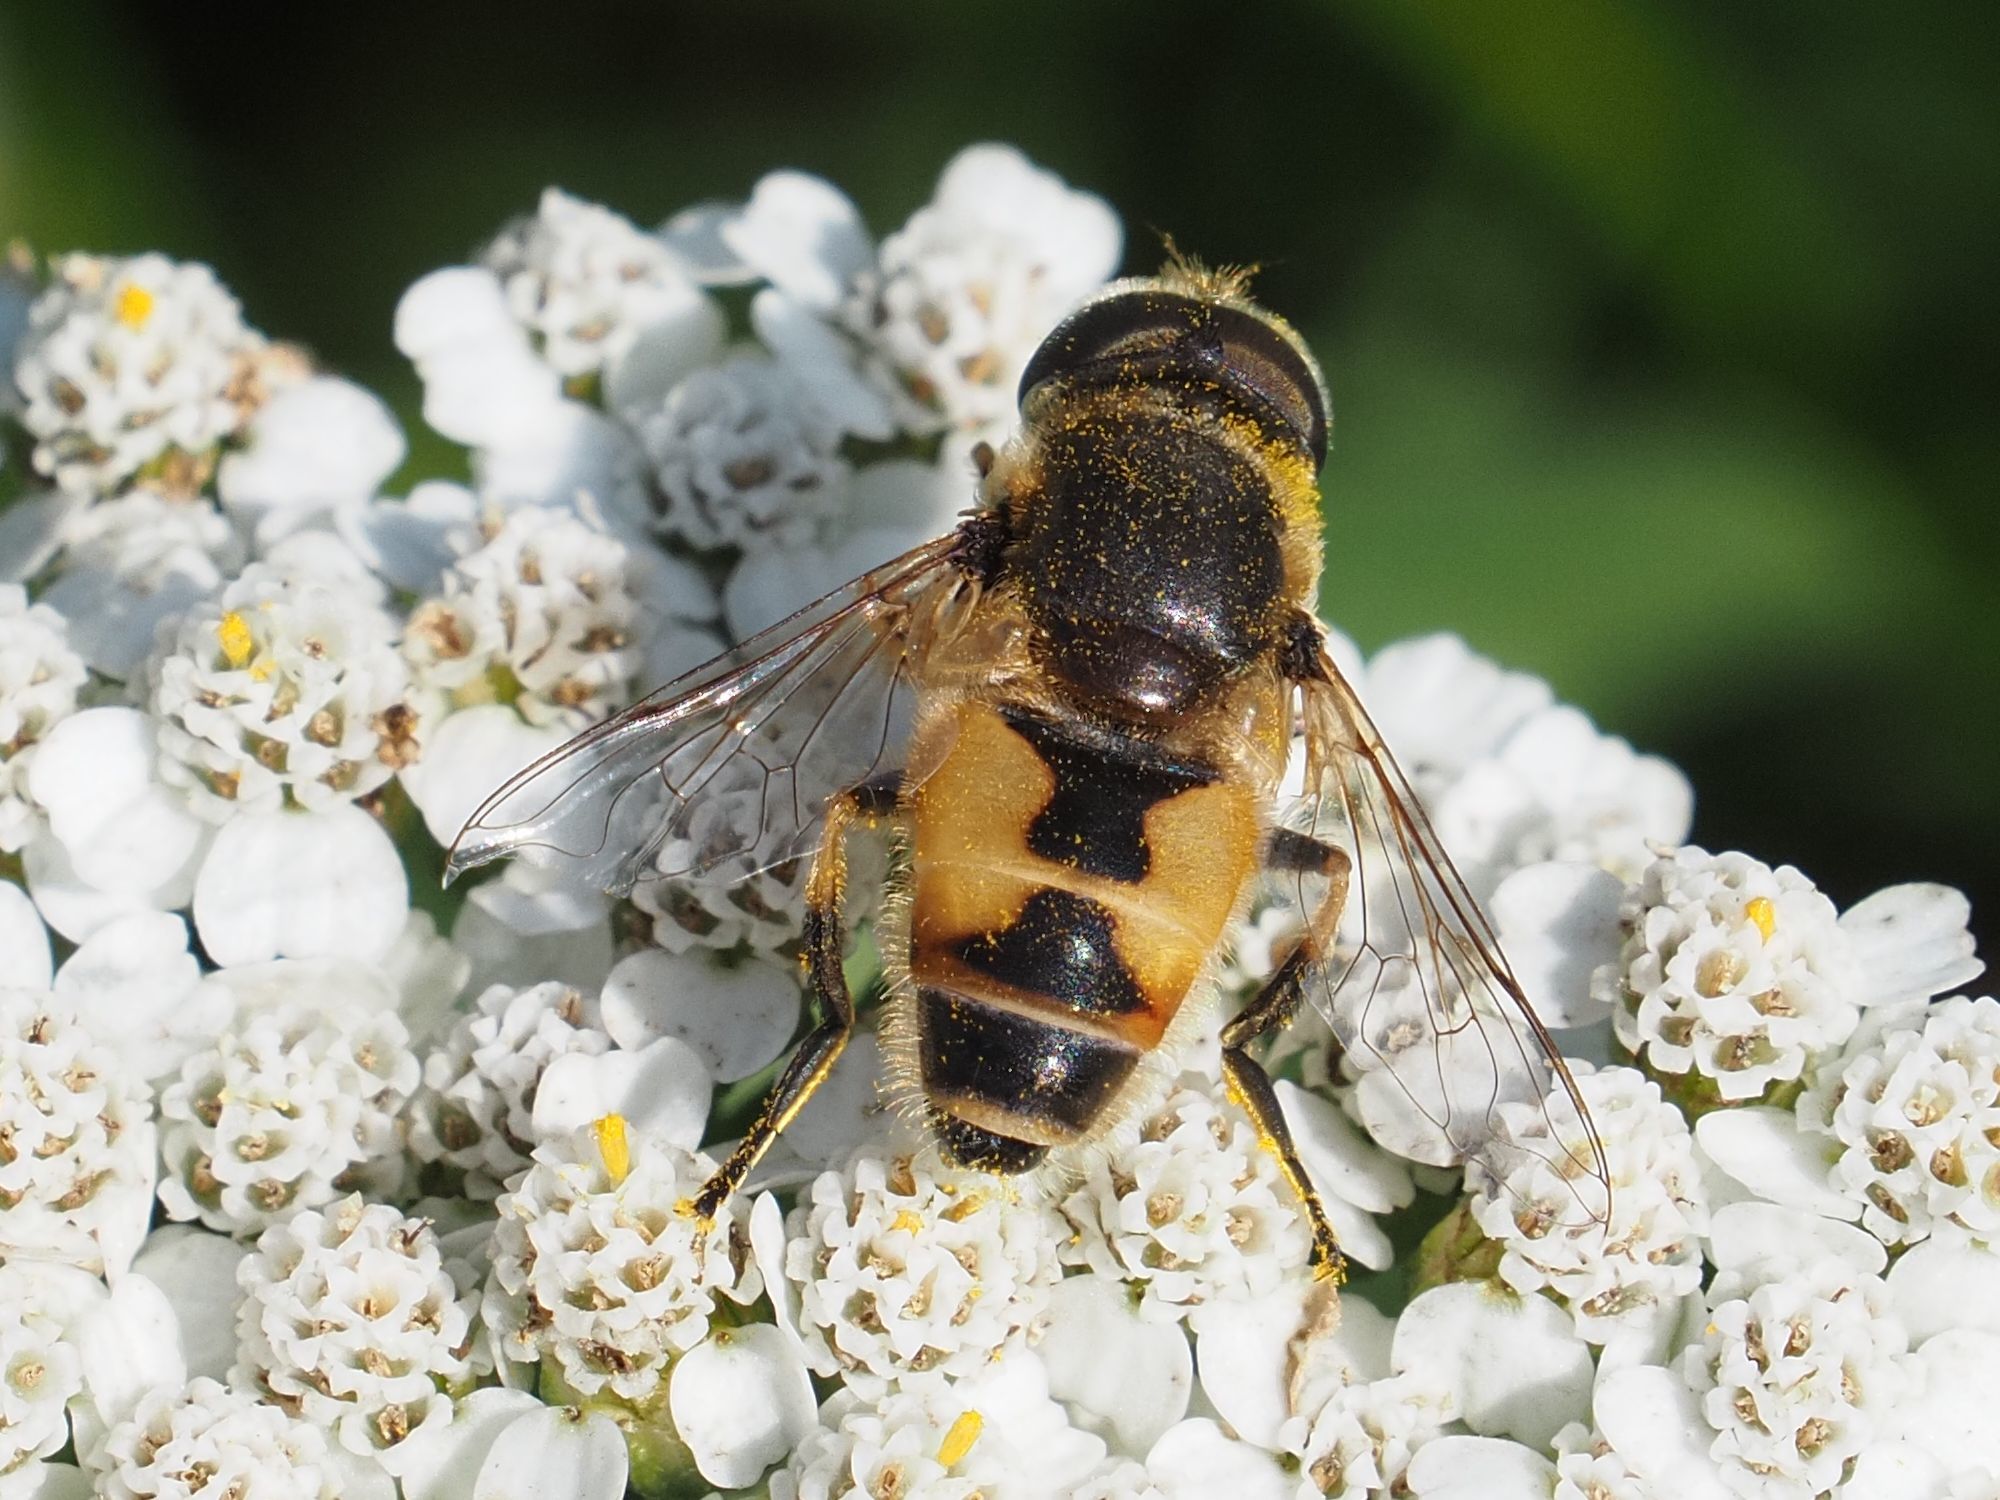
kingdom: Animalia
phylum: Arthropoda
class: Insecta
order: Diptera
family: Syrphidae
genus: Eristalis
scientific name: Eristalis arbustorum
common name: Hover fly
